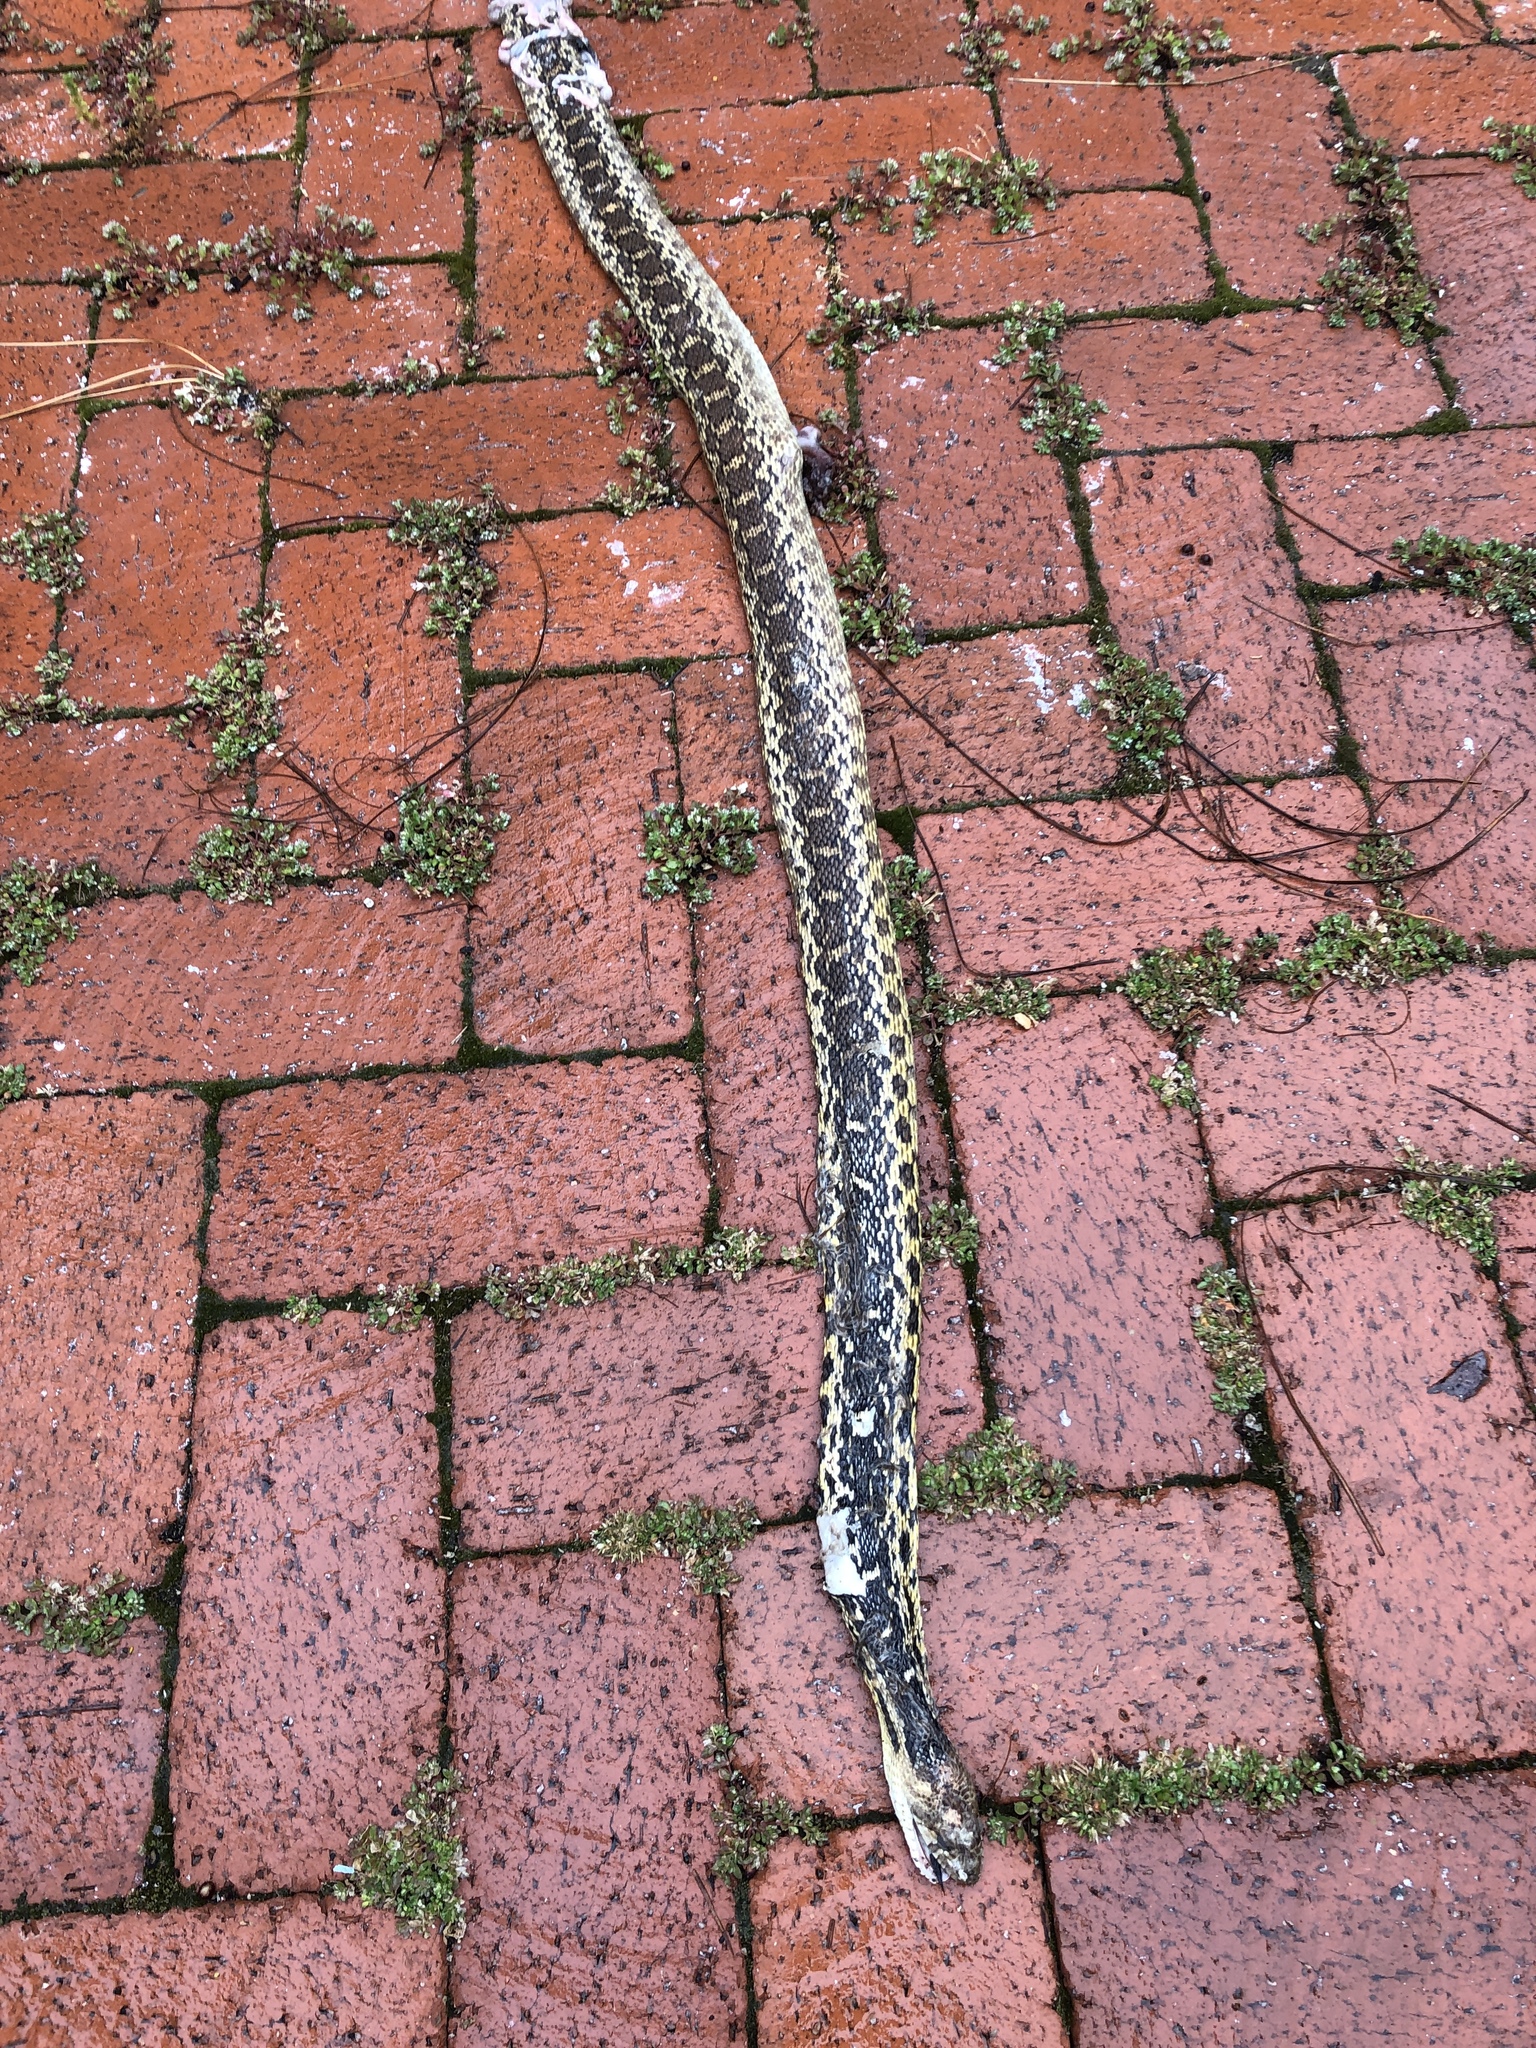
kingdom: Animalia
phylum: Chordata
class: Squamata
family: Colubridae
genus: Pituophis
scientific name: Pituophis catenifer
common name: Gopher snake
